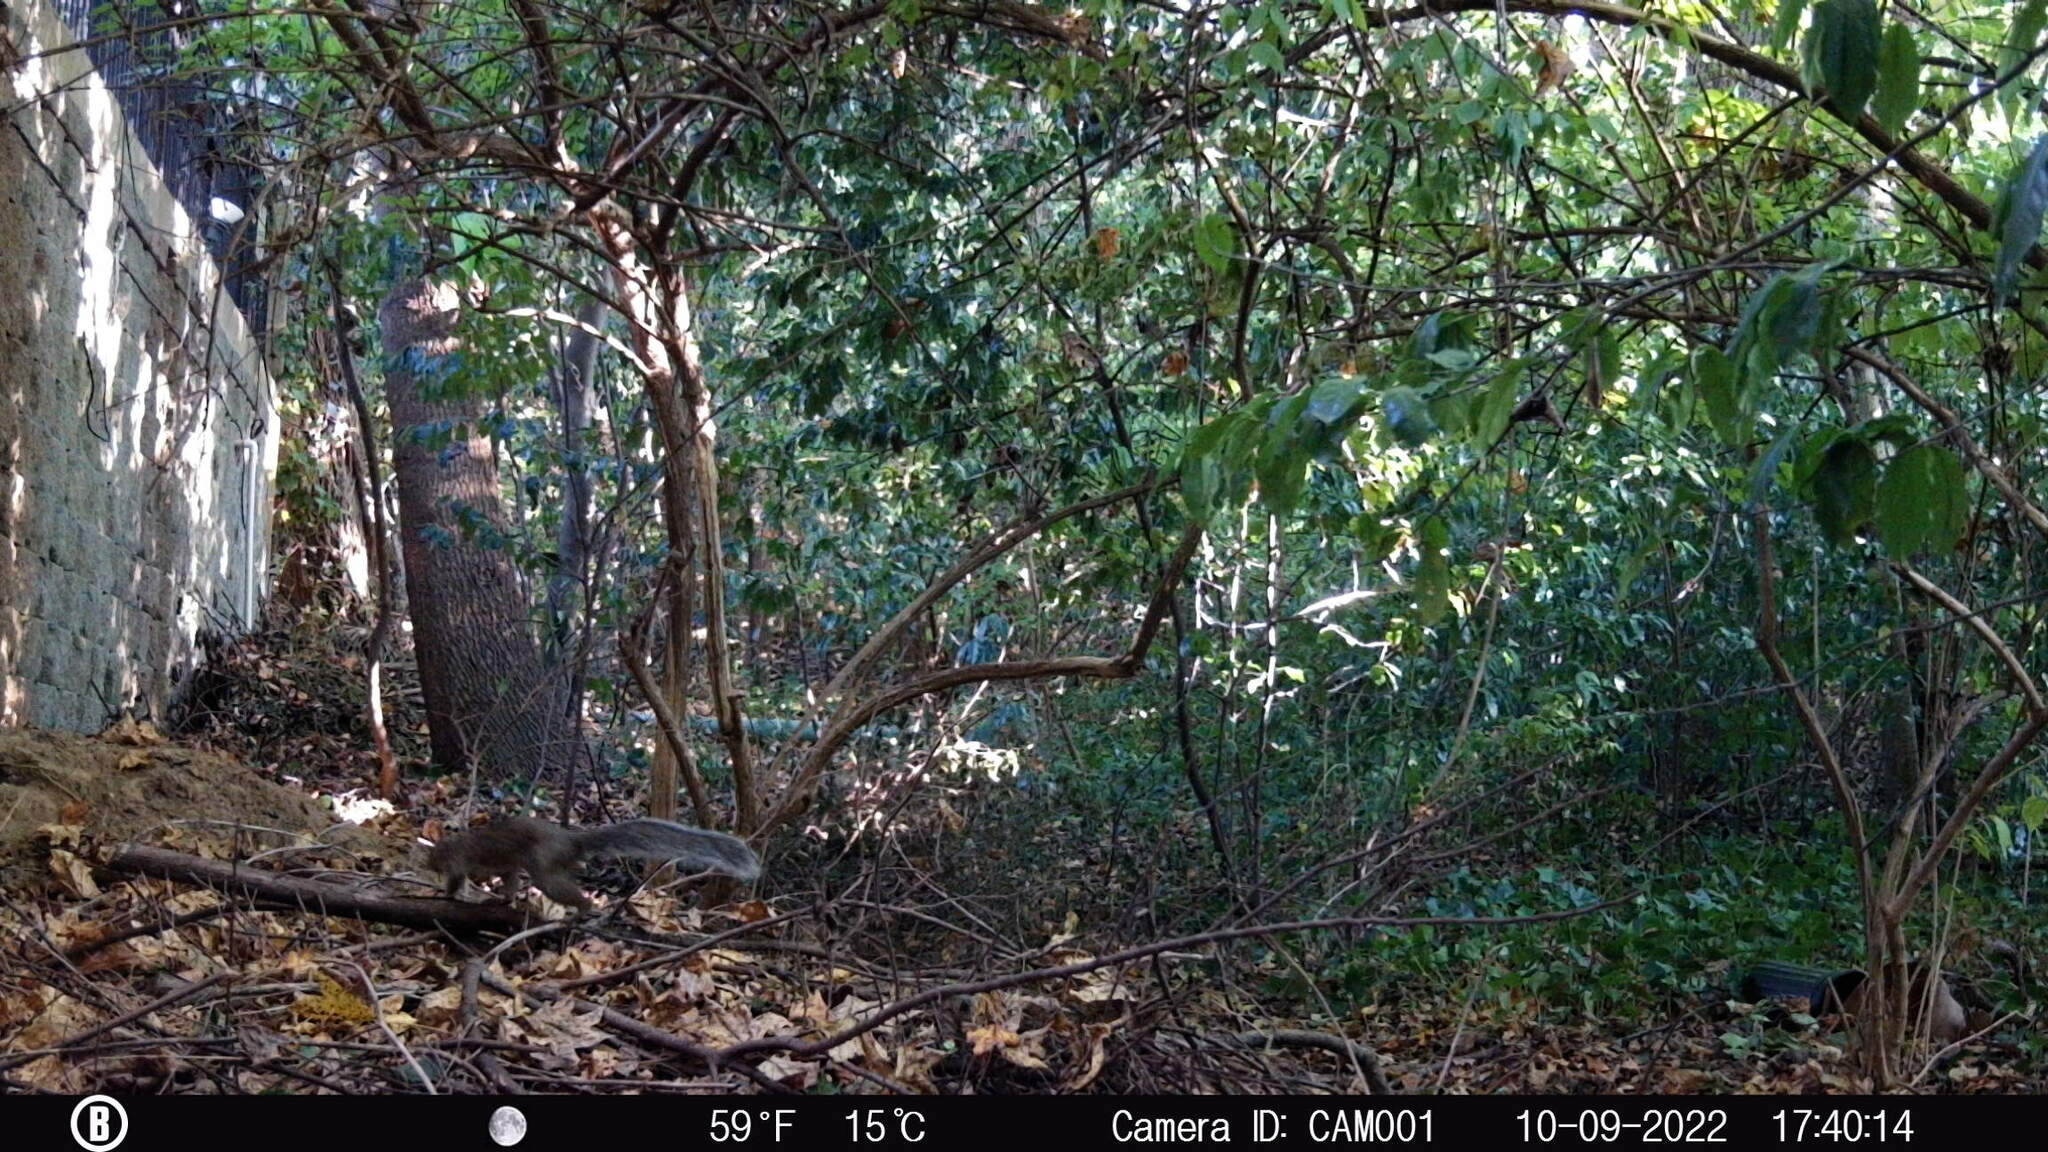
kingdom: Animalia
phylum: Chordata
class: Mammalia
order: Rodentia
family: Sciuridae
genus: Sciurus
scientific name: Sciurus carolinensis
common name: Eastern gray squirrel
